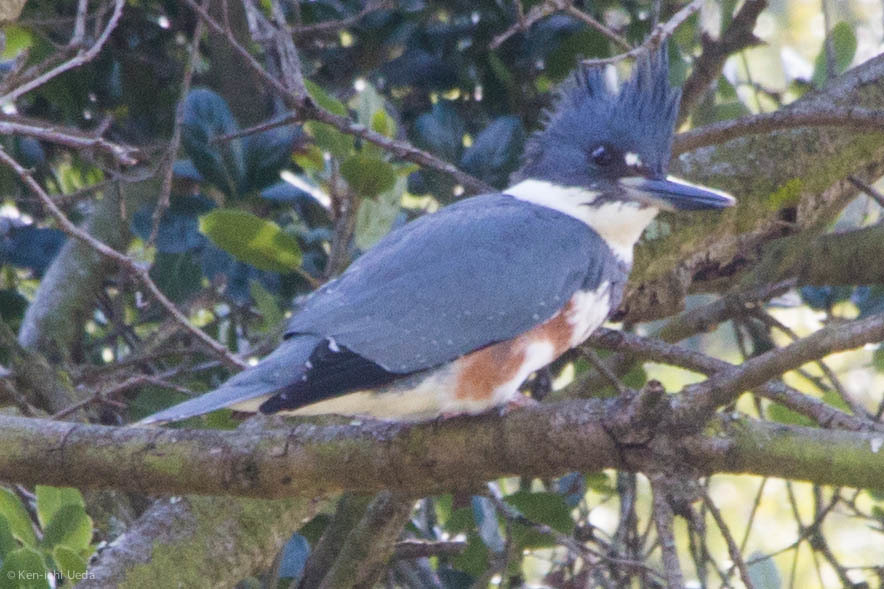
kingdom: Animalia
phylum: Chordata
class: Aves
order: Coraciiformes
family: Alcedinidae
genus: Megaceryle
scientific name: Megaceryle alcyon
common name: Belted kingfisher
